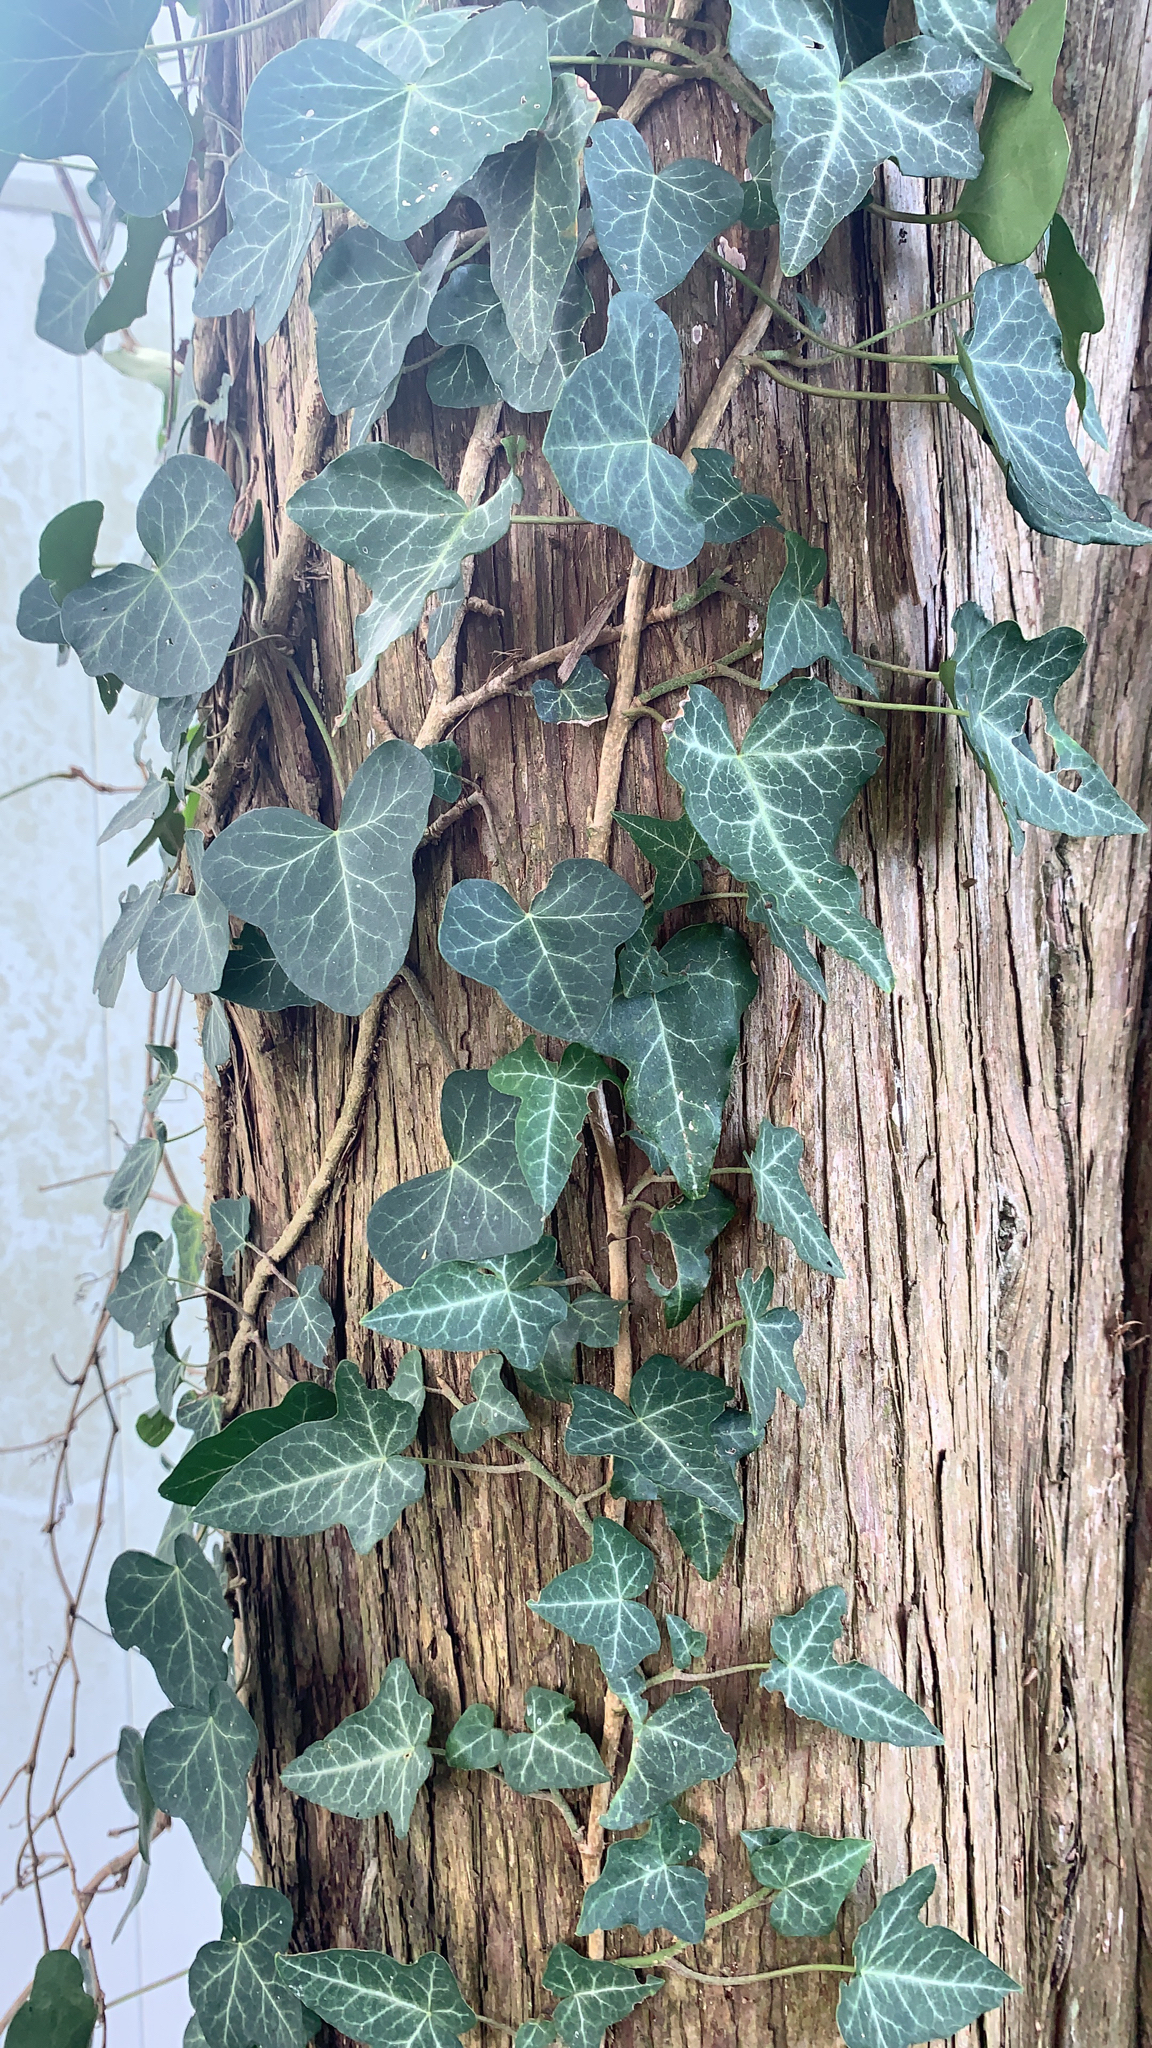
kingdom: Plantae
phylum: Tracheophyta
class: Magnoliopsida
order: Apiales
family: Araliaceae
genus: Hedera
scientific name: Hedera helix
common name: Ivy
